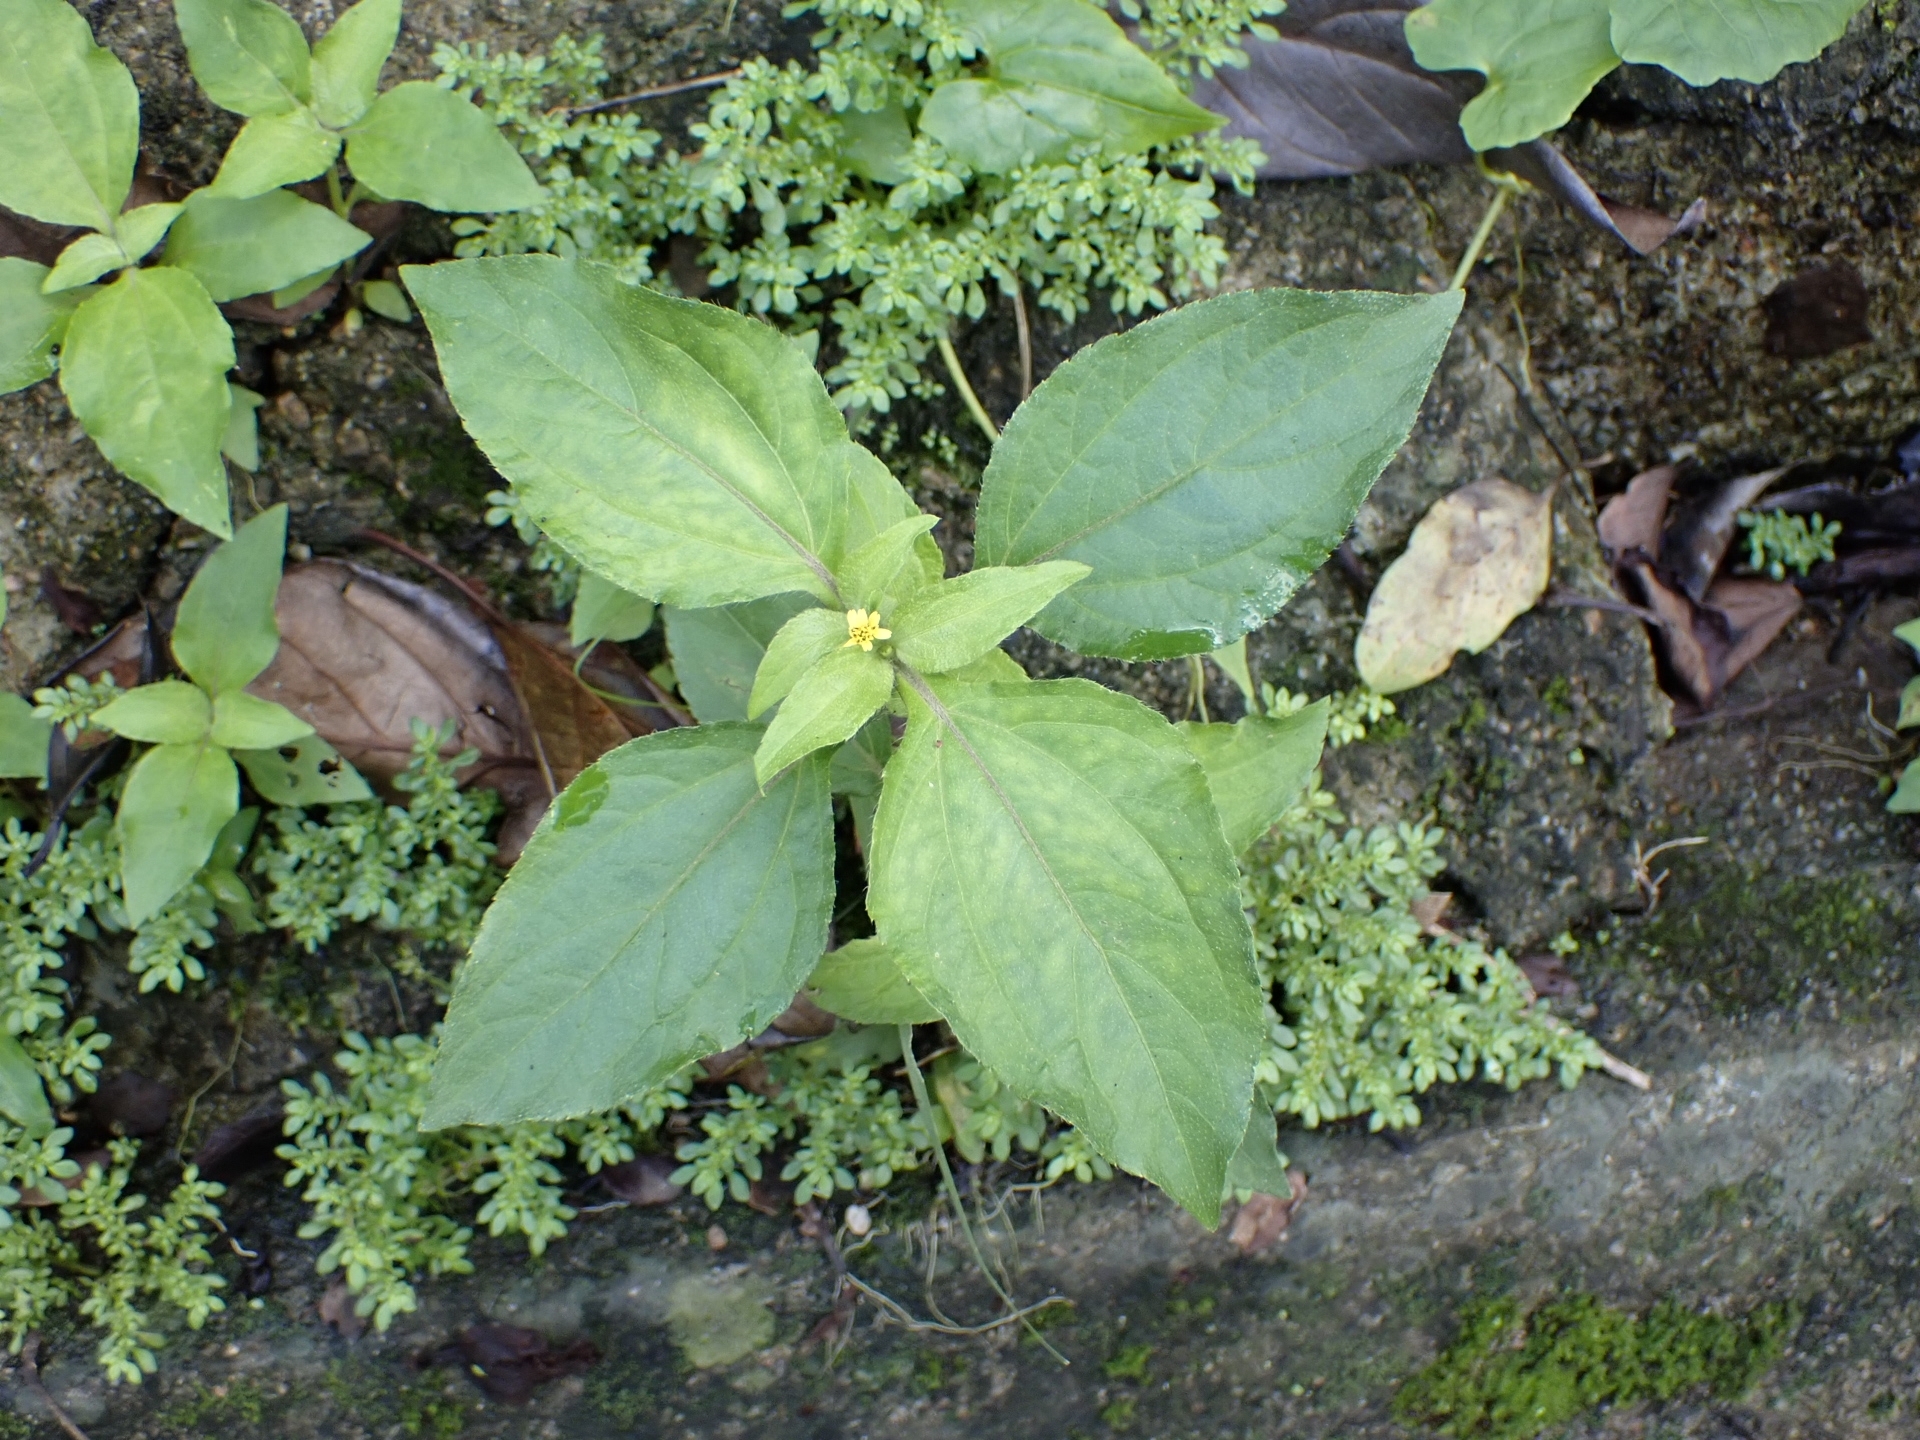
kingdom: Plantae
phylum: Tracheophyta
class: Magnoliopsida
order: Asterales
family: Asteraceae
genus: Synedrella
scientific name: Synedrella nodiflora
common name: Nodeweed
